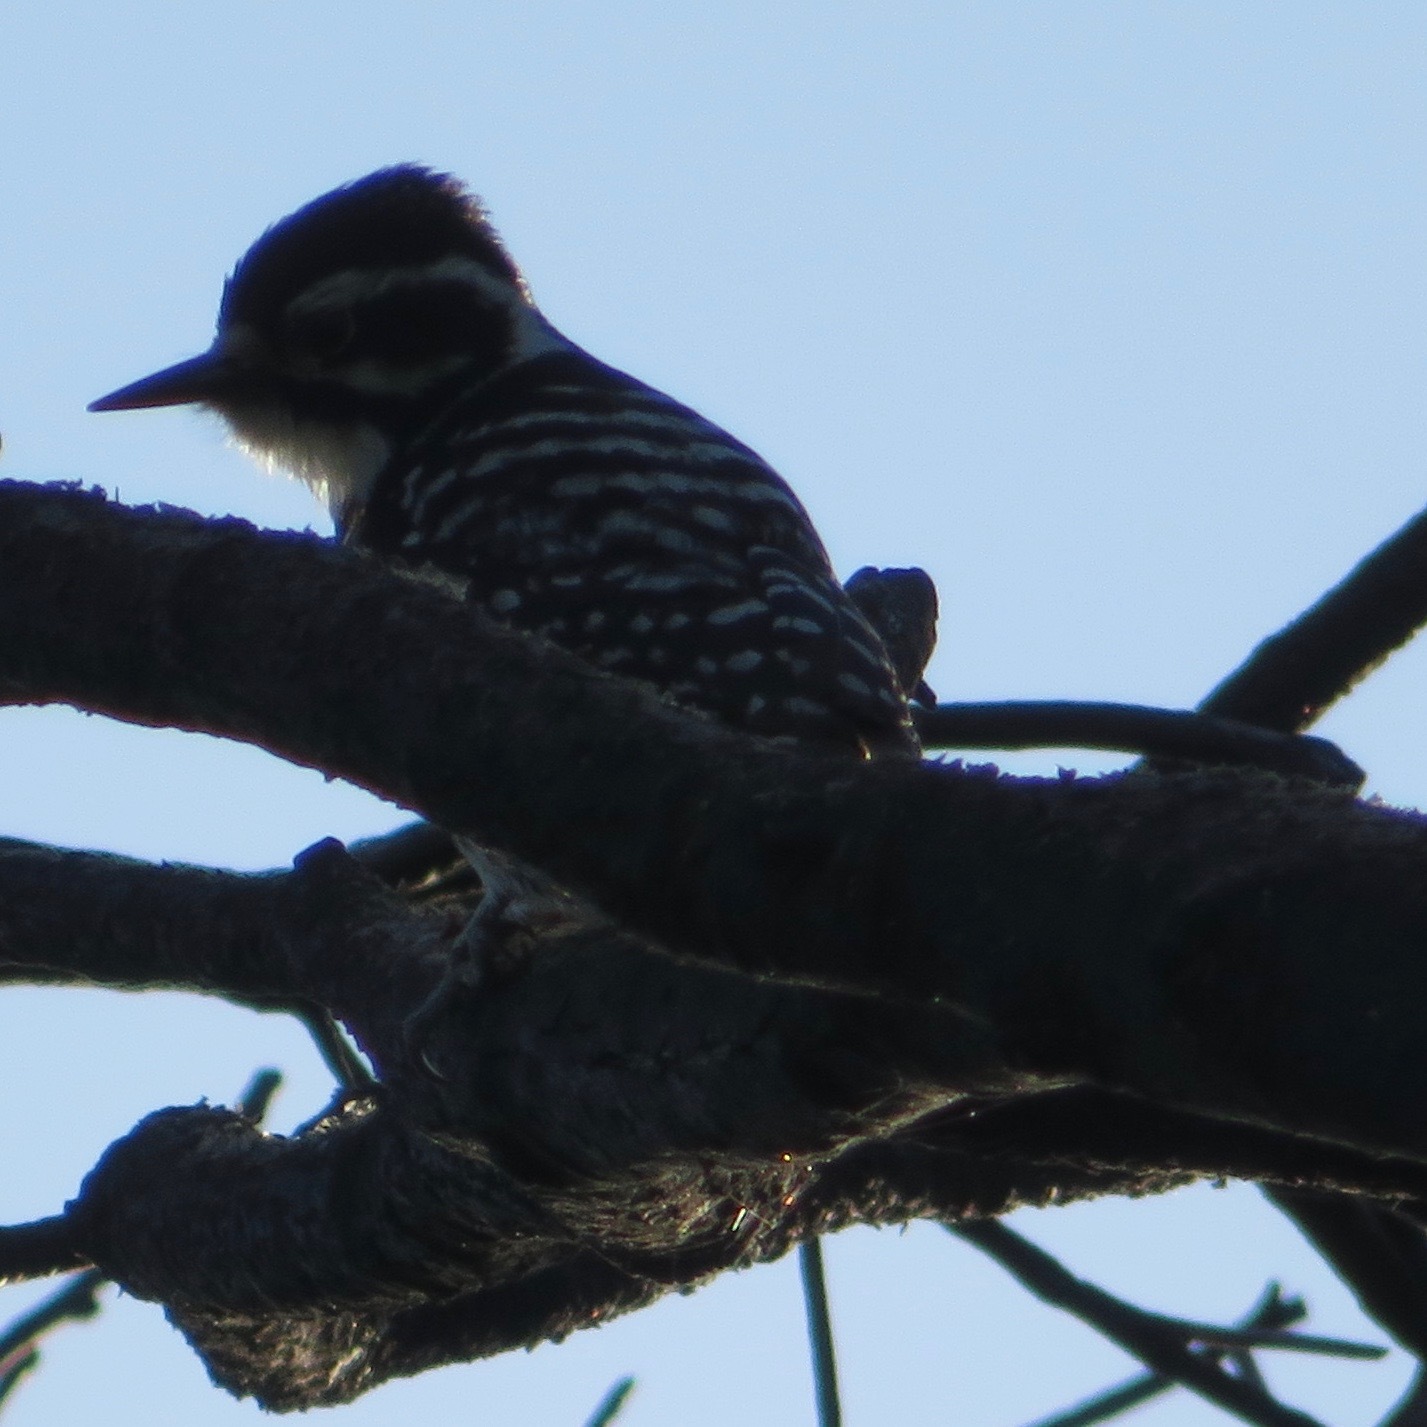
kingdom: Animalia
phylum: Chordata
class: Aves
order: Piciformes
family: Picidae
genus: Dryobates
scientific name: Dryobates nuttallii
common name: Nuttall's woodpecker
